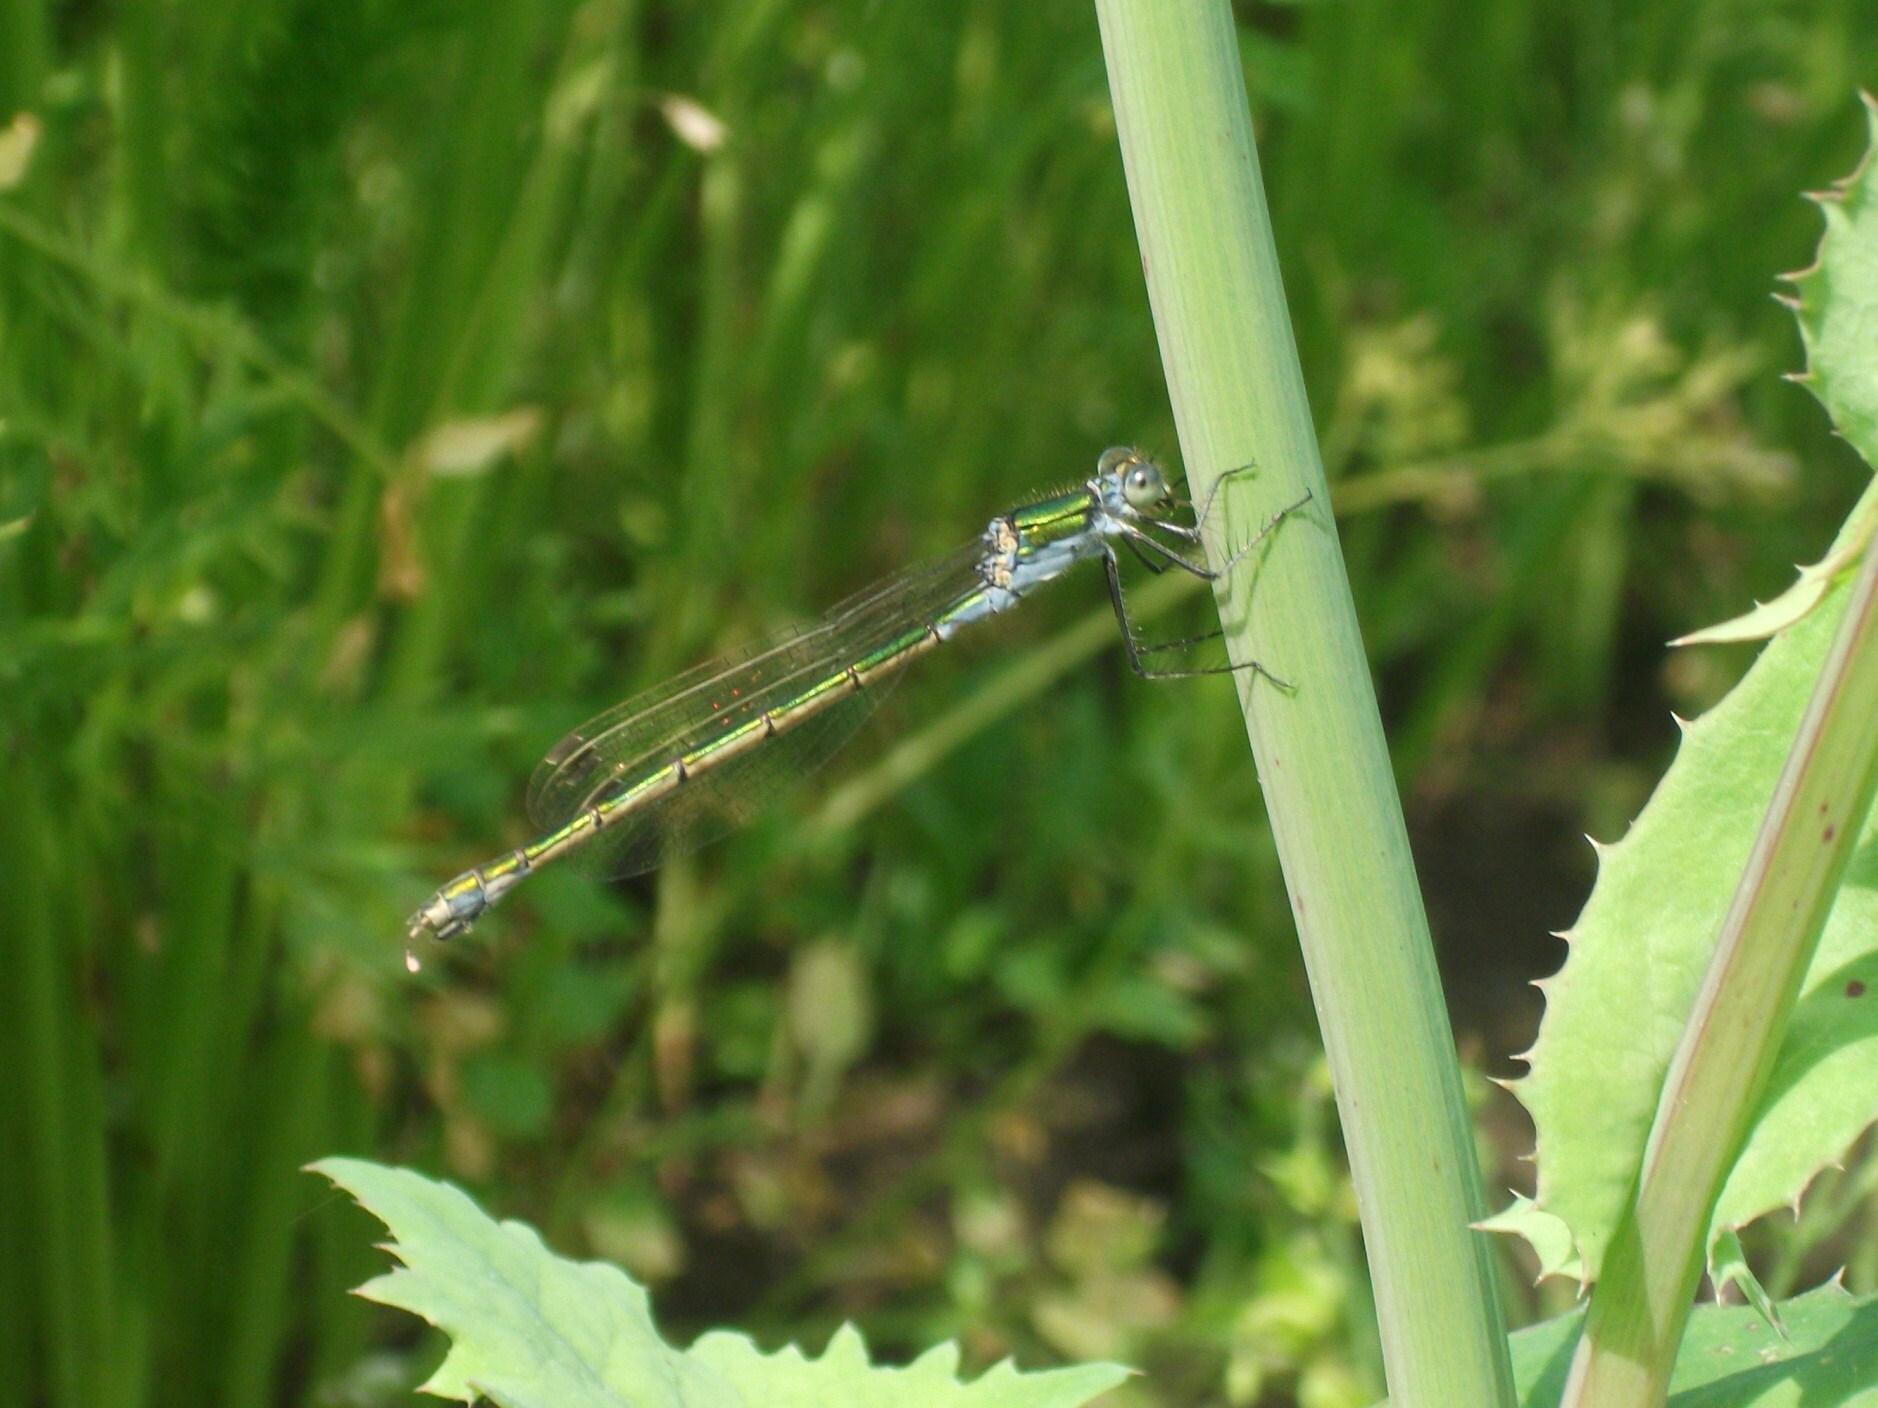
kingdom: Animalia
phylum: Arthropoda
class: Insecta
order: Odonata
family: Lestidae
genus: Lestes
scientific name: Lestes sponsa
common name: Common spreadwing
